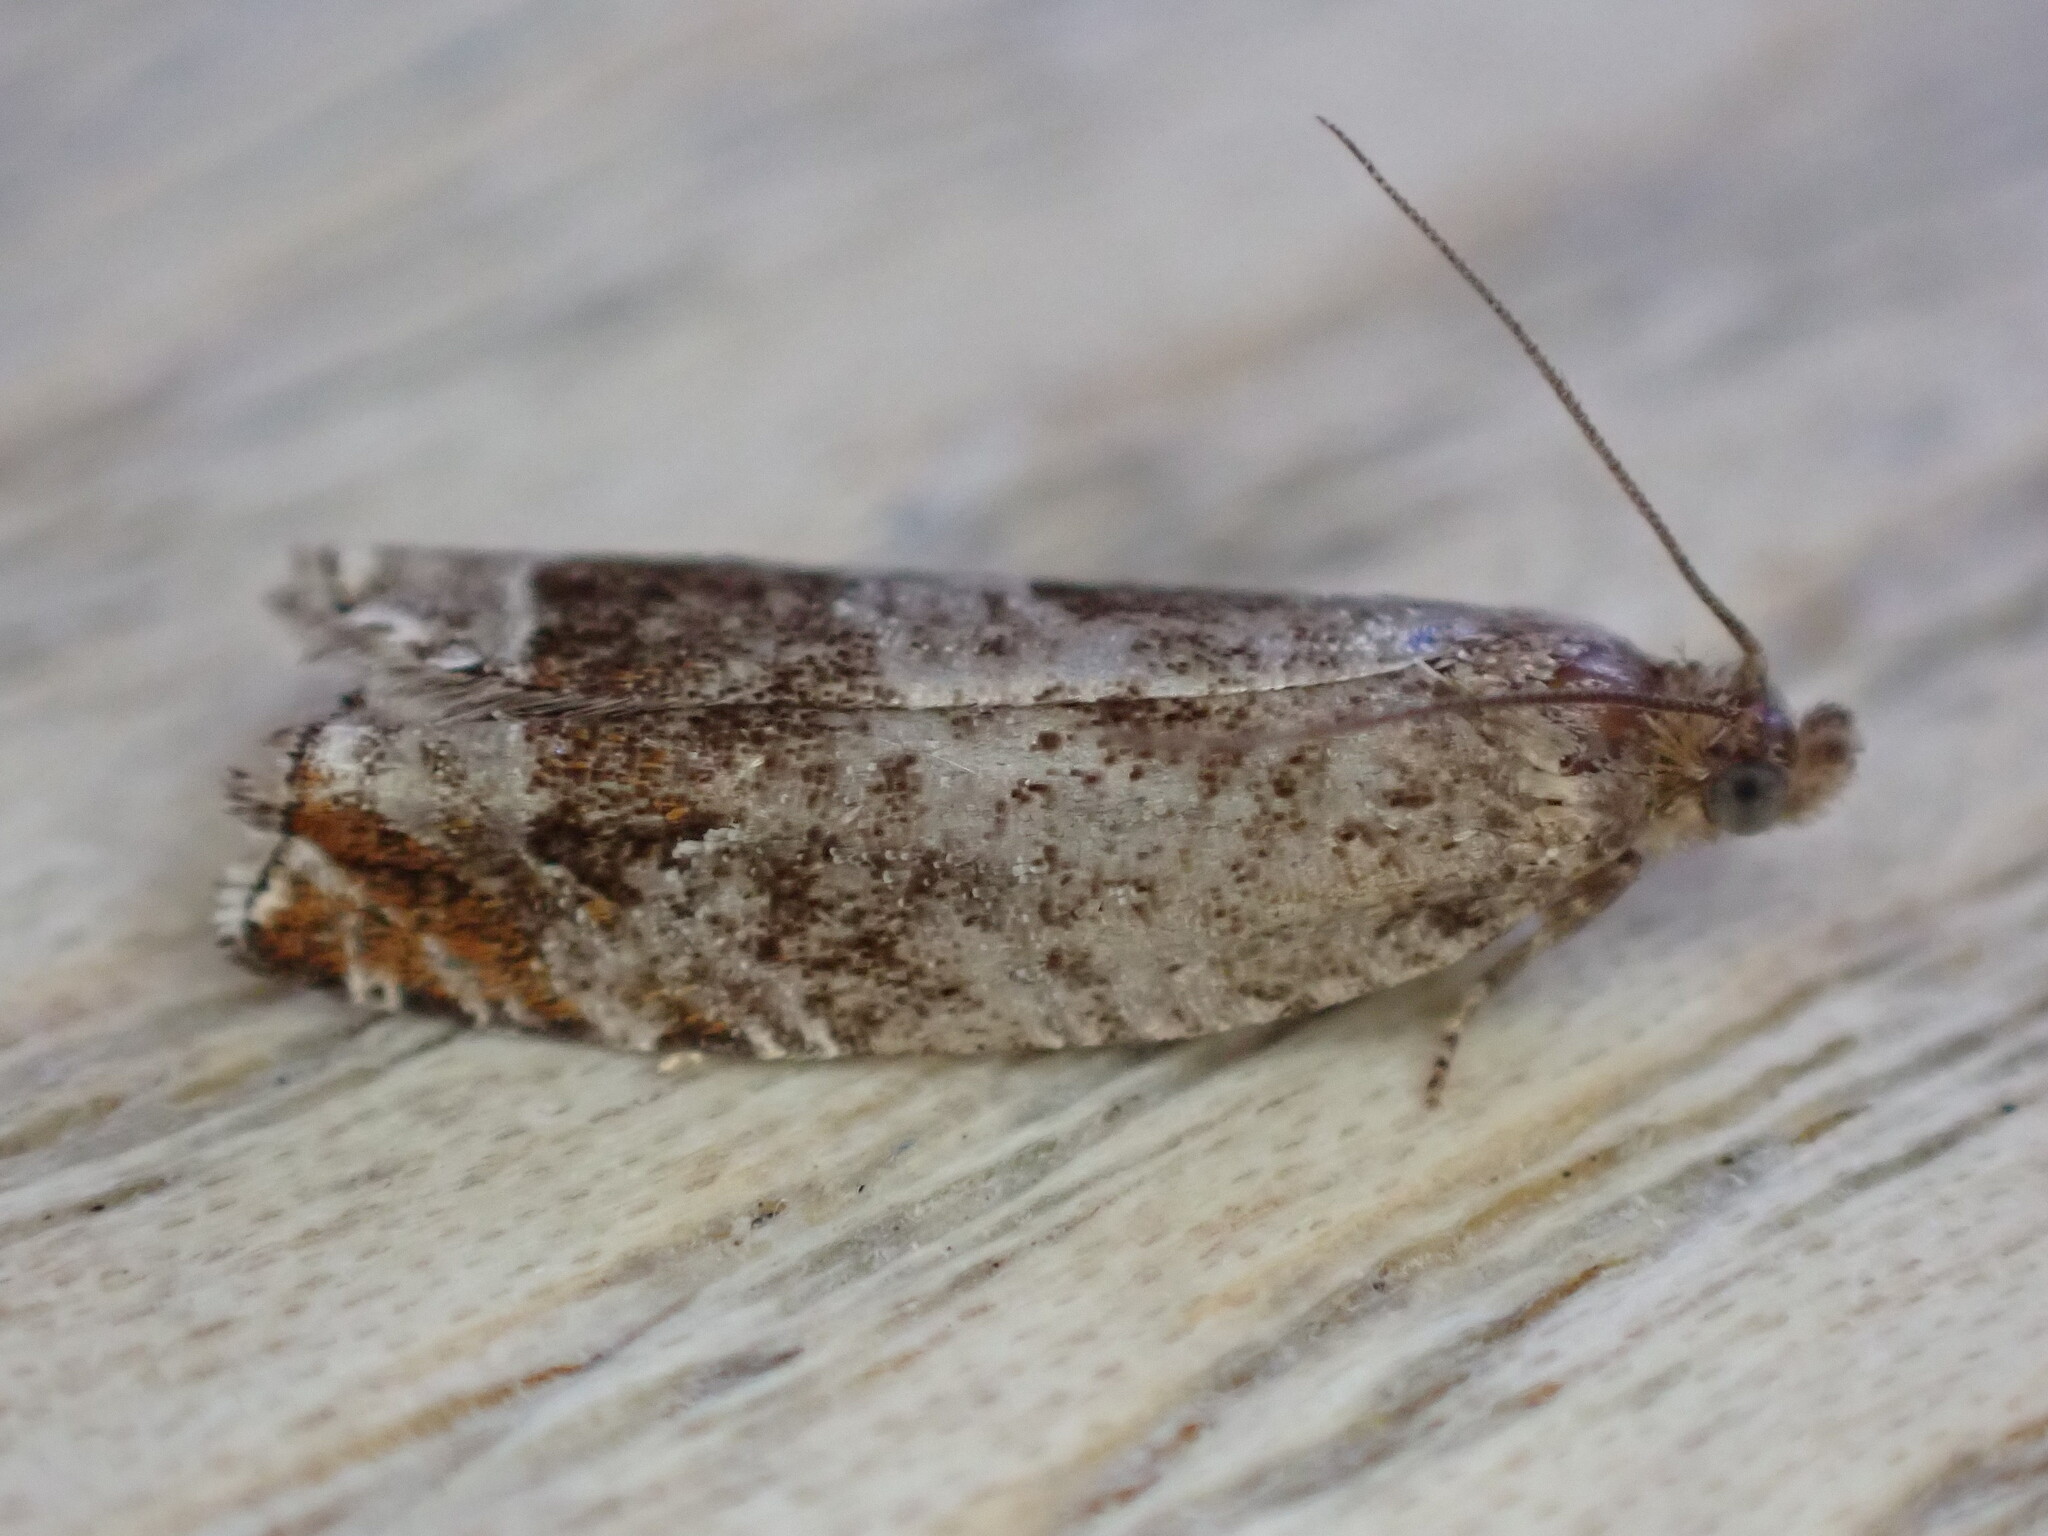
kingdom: Animalia
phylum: Arthropoda
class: Insecta
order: Lepidoptera
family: Tortricidae
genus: Ancylis
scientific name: Ancylis achatana
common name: Triangle-marked roller
